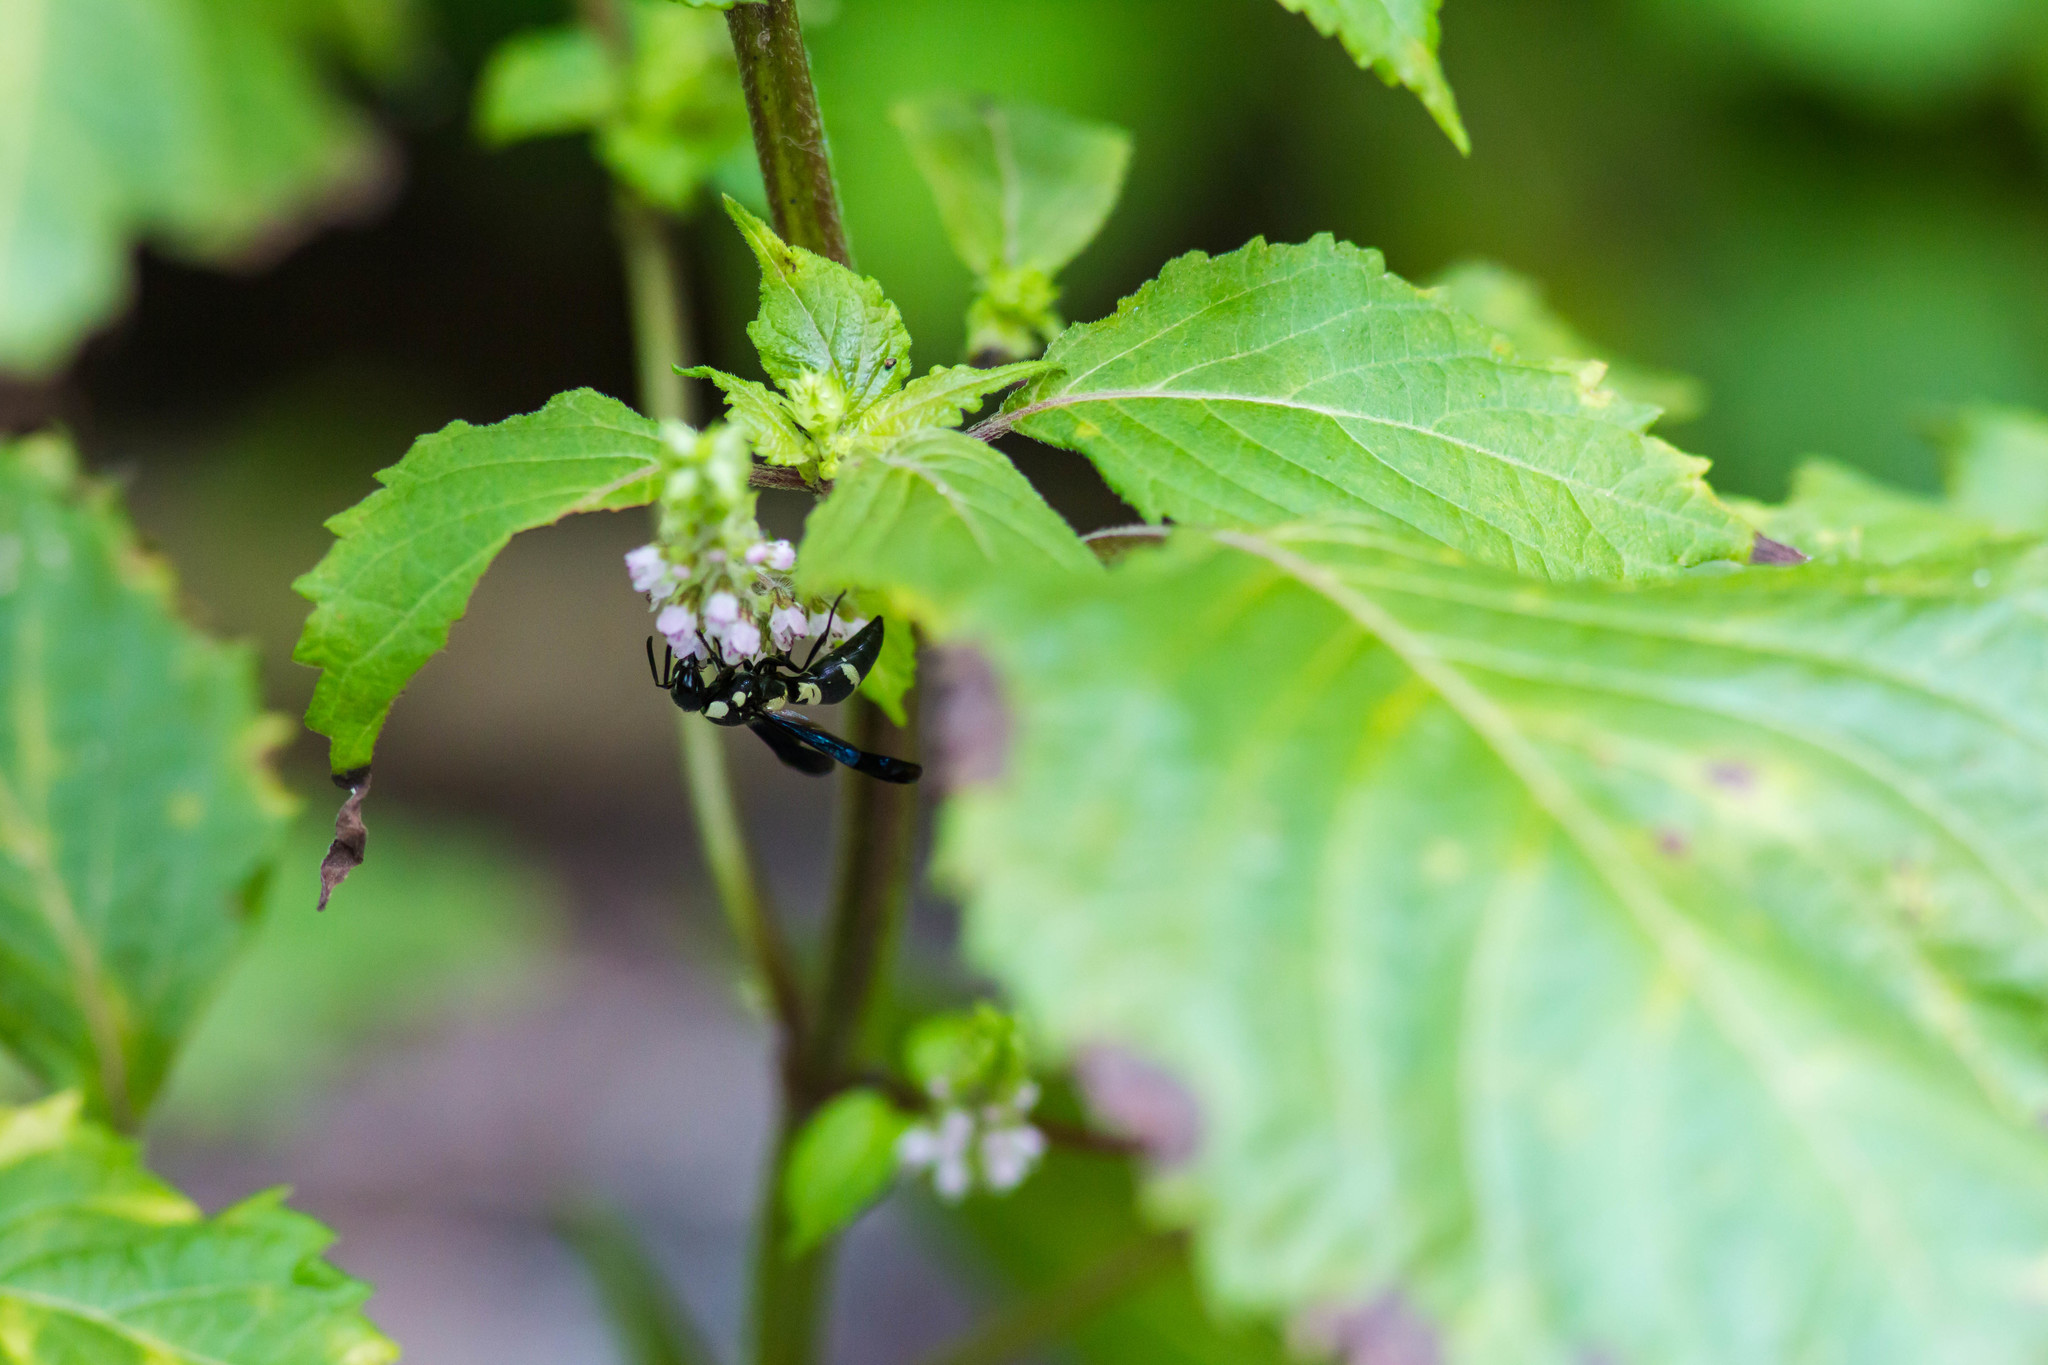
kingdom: Animalia
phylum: Arthropoda
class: Insecta
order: Hymenoptera
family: Eumenidae
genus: Pseudodynerus
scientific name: Pseudodynerus quadrisectus
